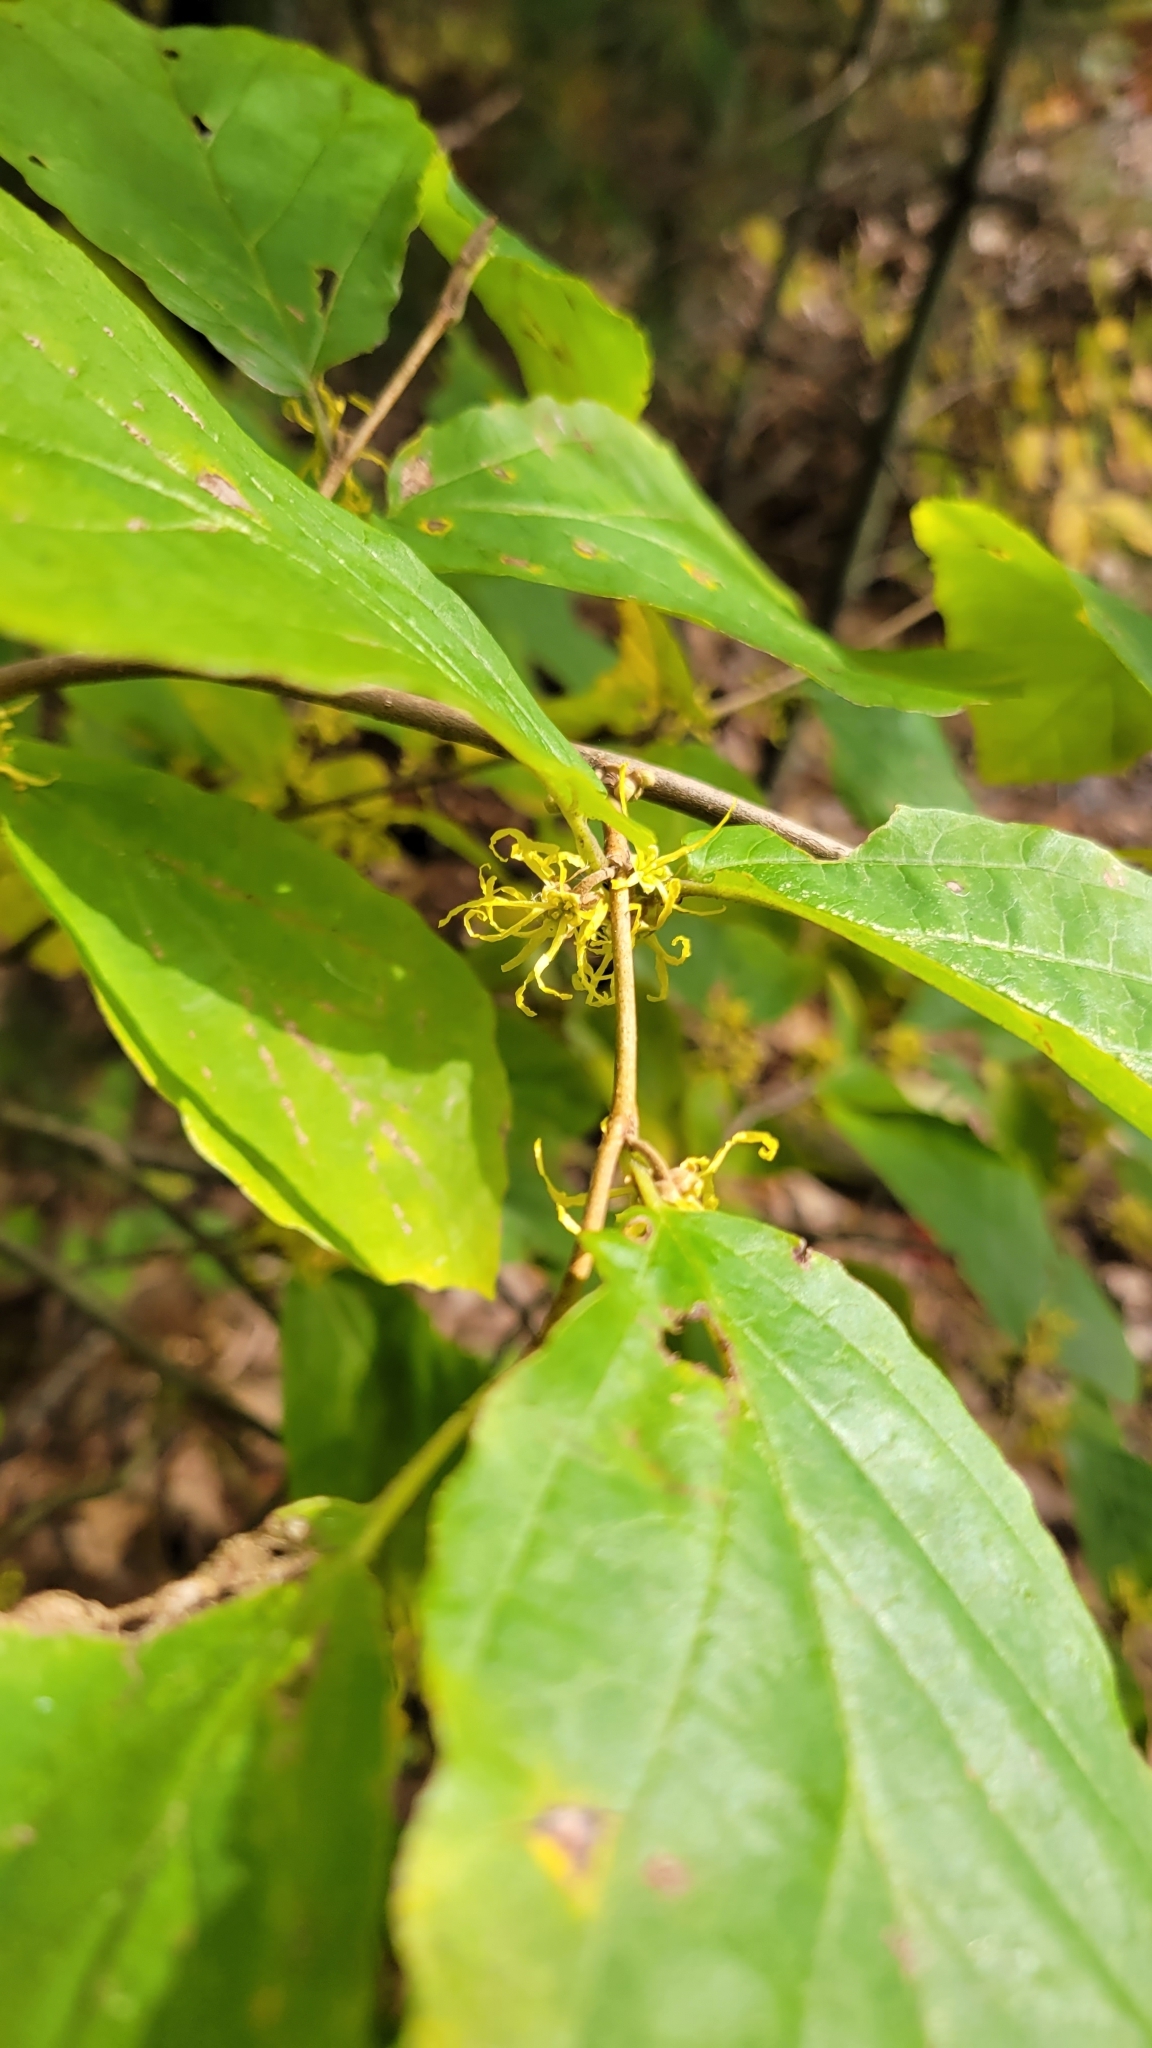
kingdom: Plantae
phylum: Tracheophyta
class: Magnoliopsida
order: Saxifragales
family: Hamamelidaceae
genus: Hamamelis
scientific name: Hamamelis virginiana
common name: Witch-hazel
